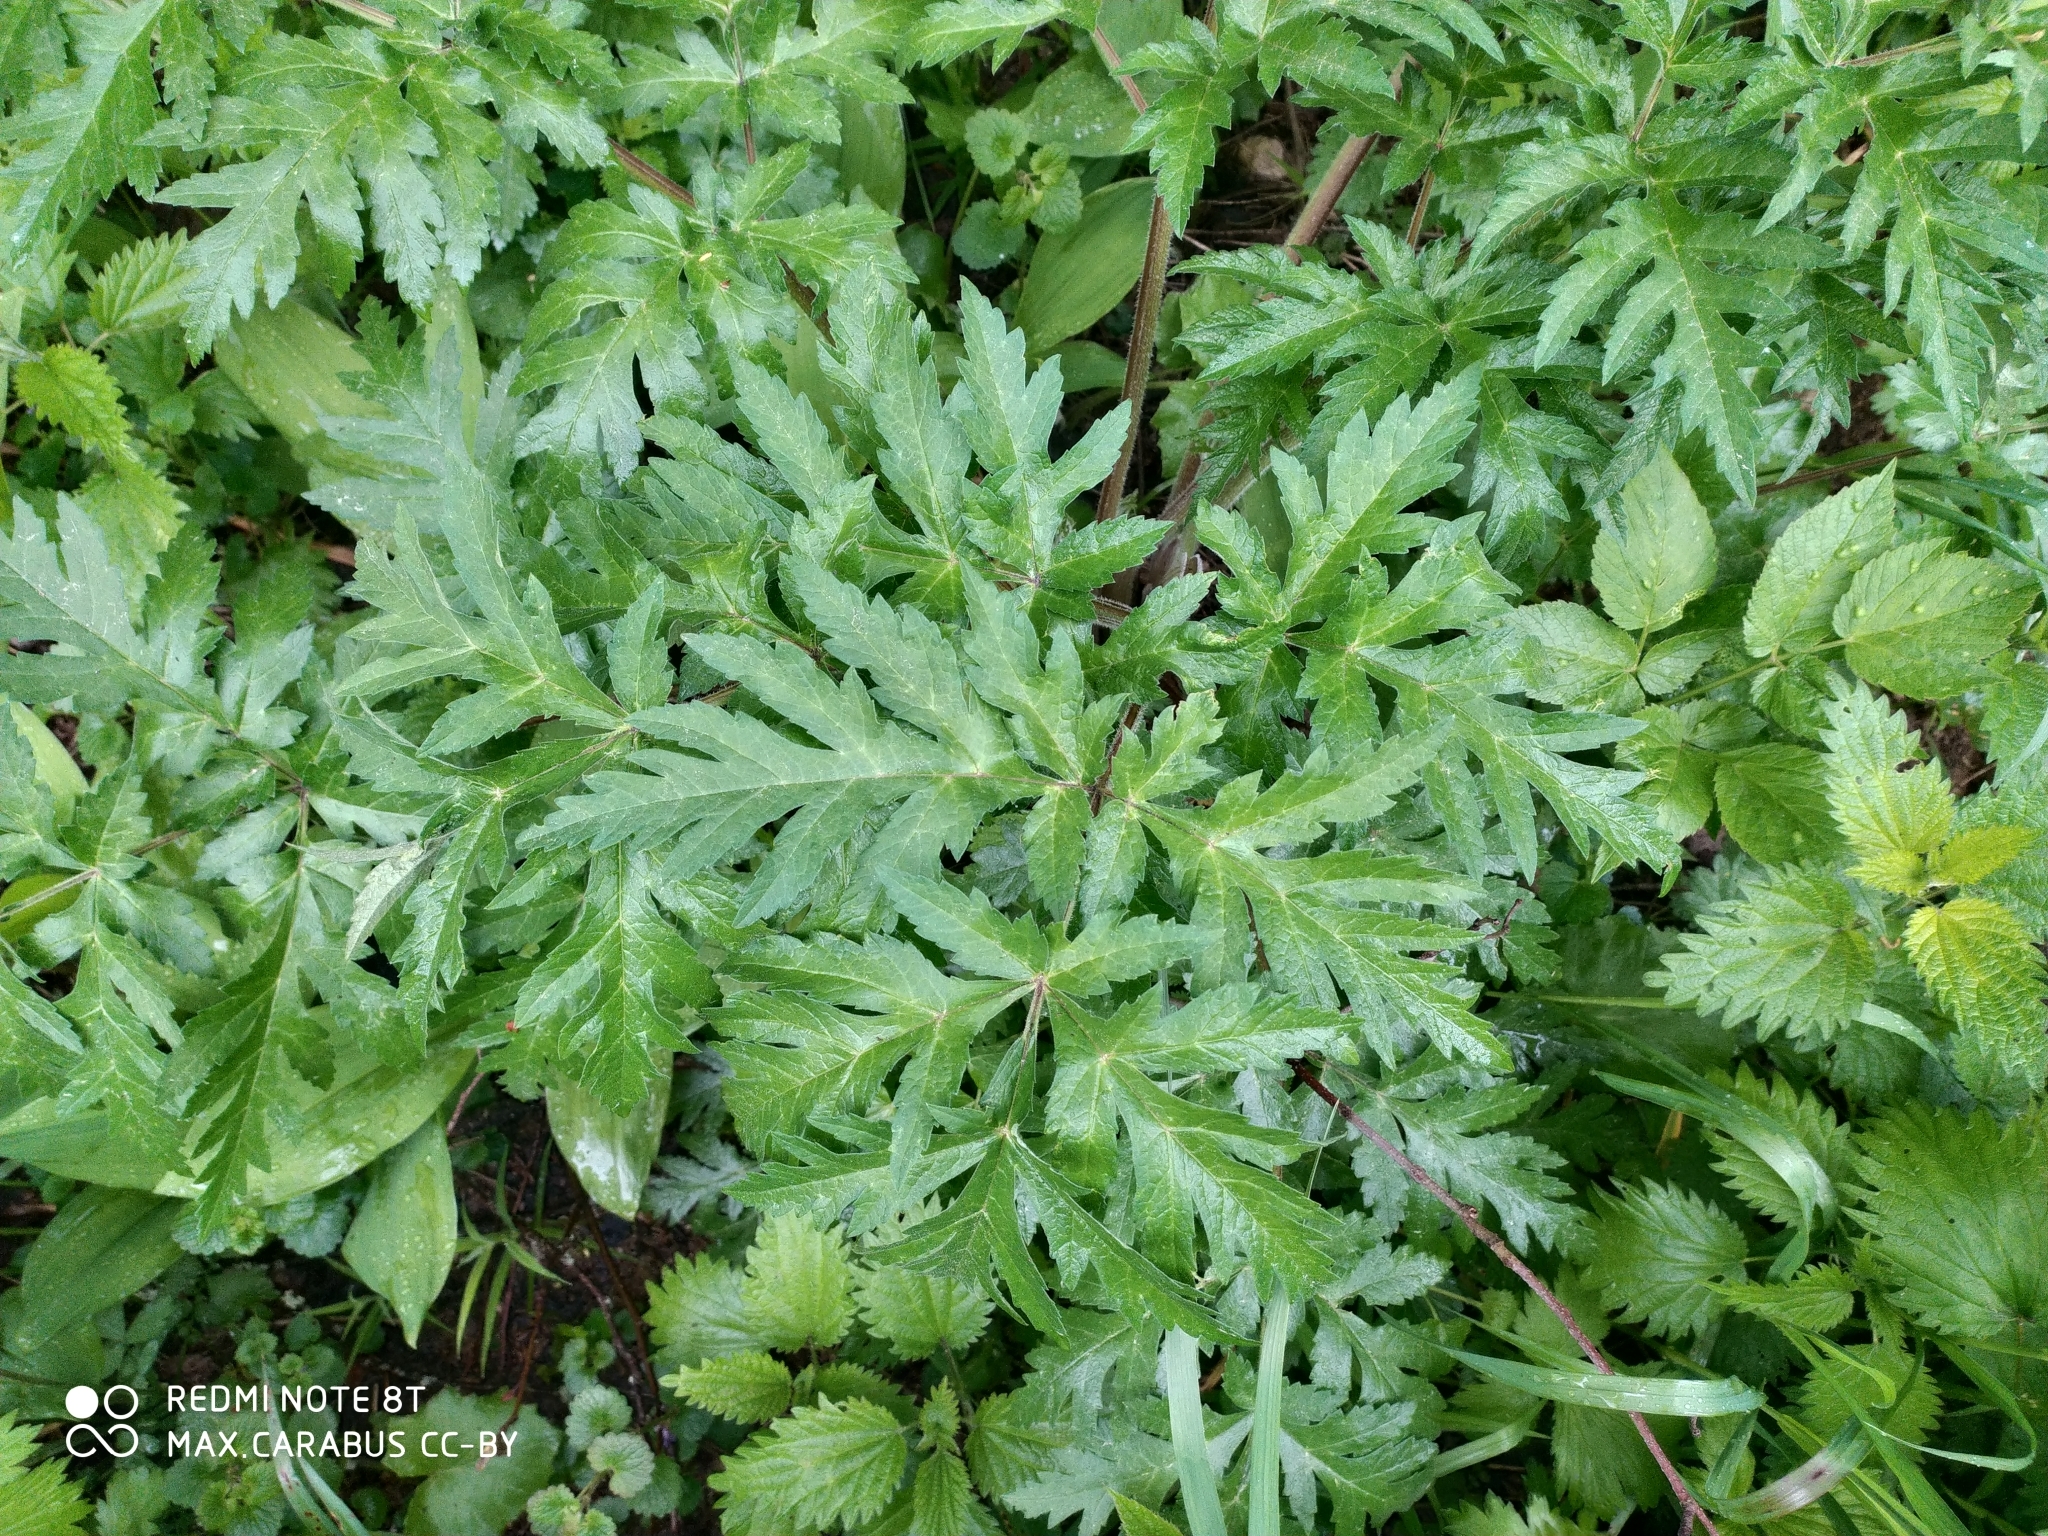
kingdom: Plantae
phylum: Tracheophyta
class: Magnoliopsida
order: Apiales
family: Apiaceae
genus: Heracleum
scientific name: Heracleum sphondylium
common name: Hogweed
